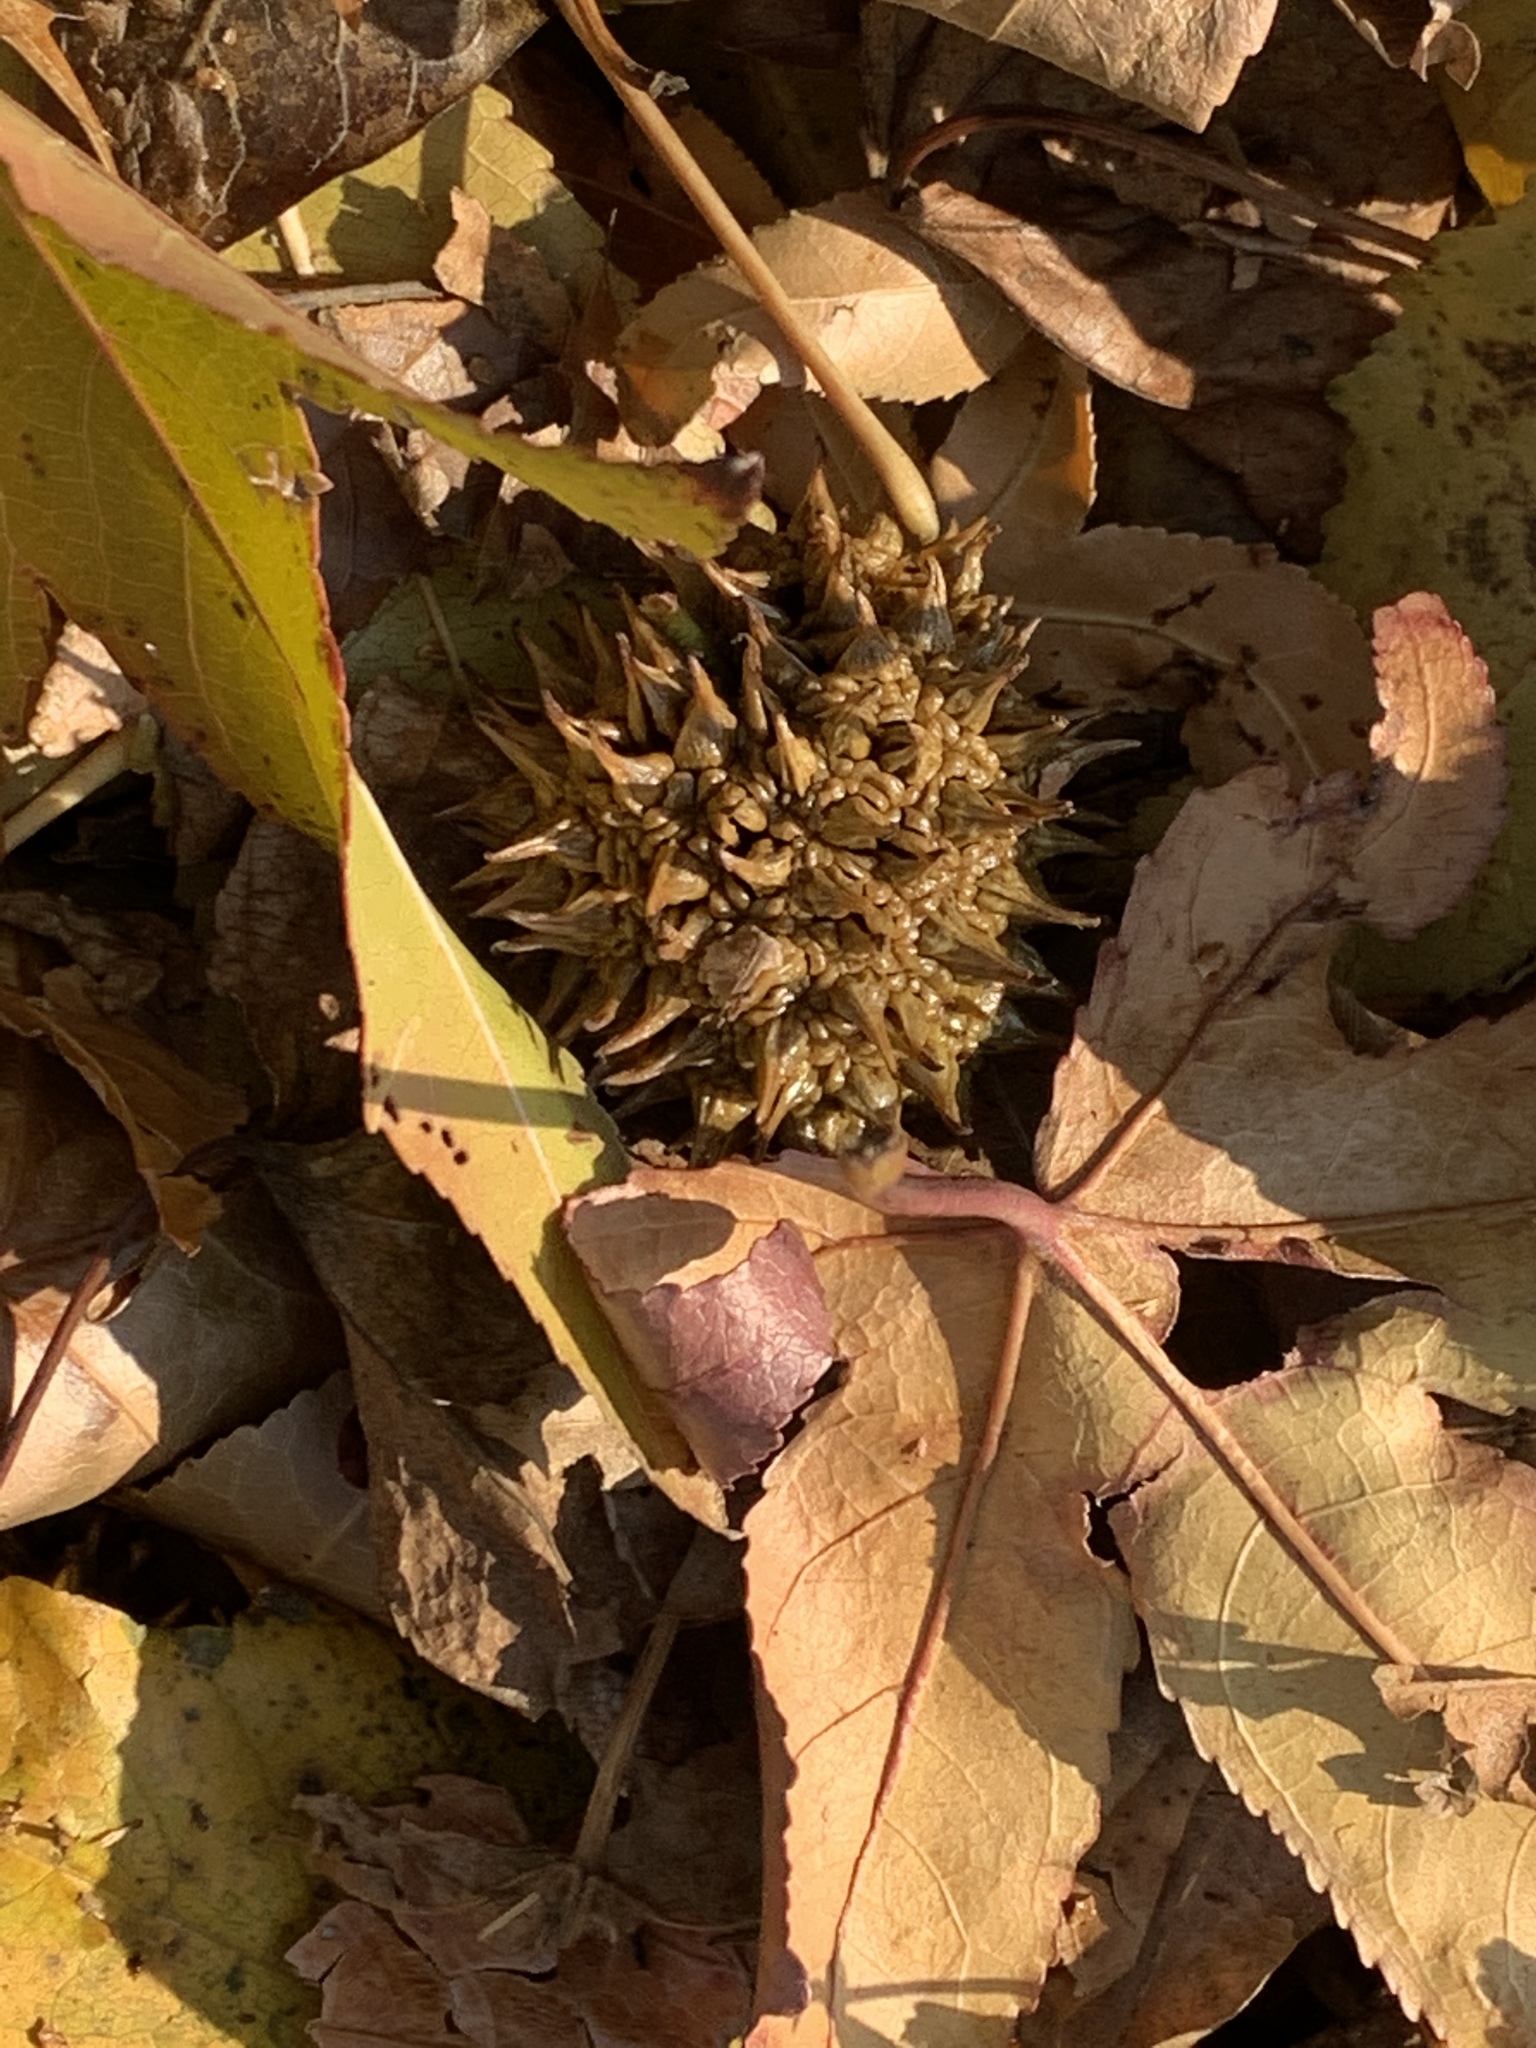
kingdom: Plantae
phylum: Tracheophyta
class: Magnoliopsida
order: Saxifragales
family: Altingiaceae
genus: Liquidambar
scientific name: Liquidambar styraciflua
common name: Sweet gum
